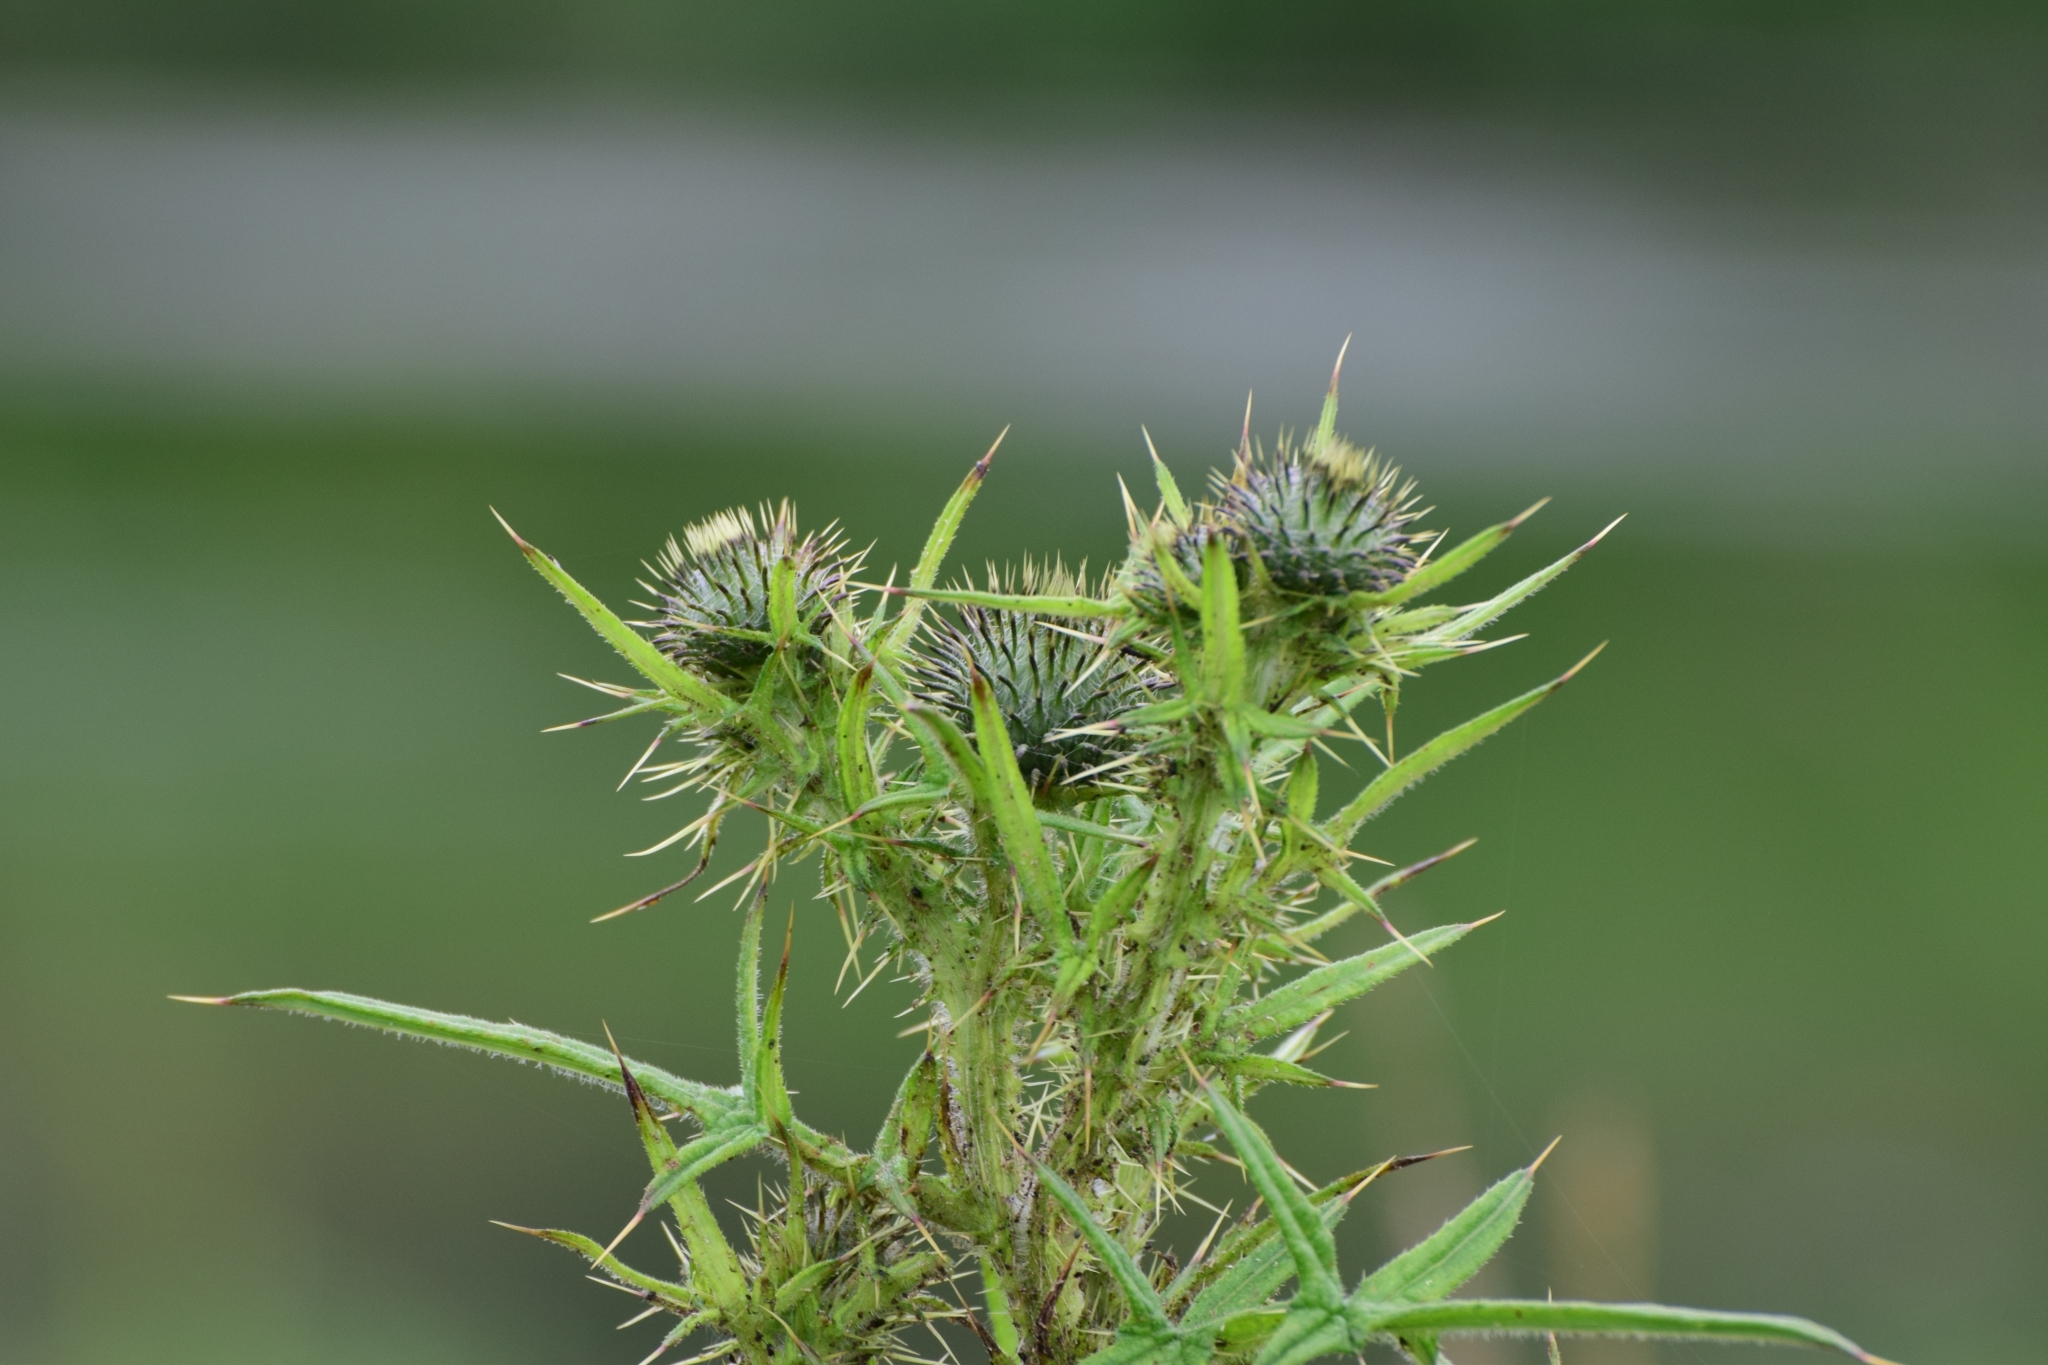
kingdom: Plantae
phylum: Tracheophyta
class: Magnoliopsida
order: Asterales
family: Asteraceae
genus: Cirsium
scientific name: Cirsium vulgare
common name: Bull thistle
